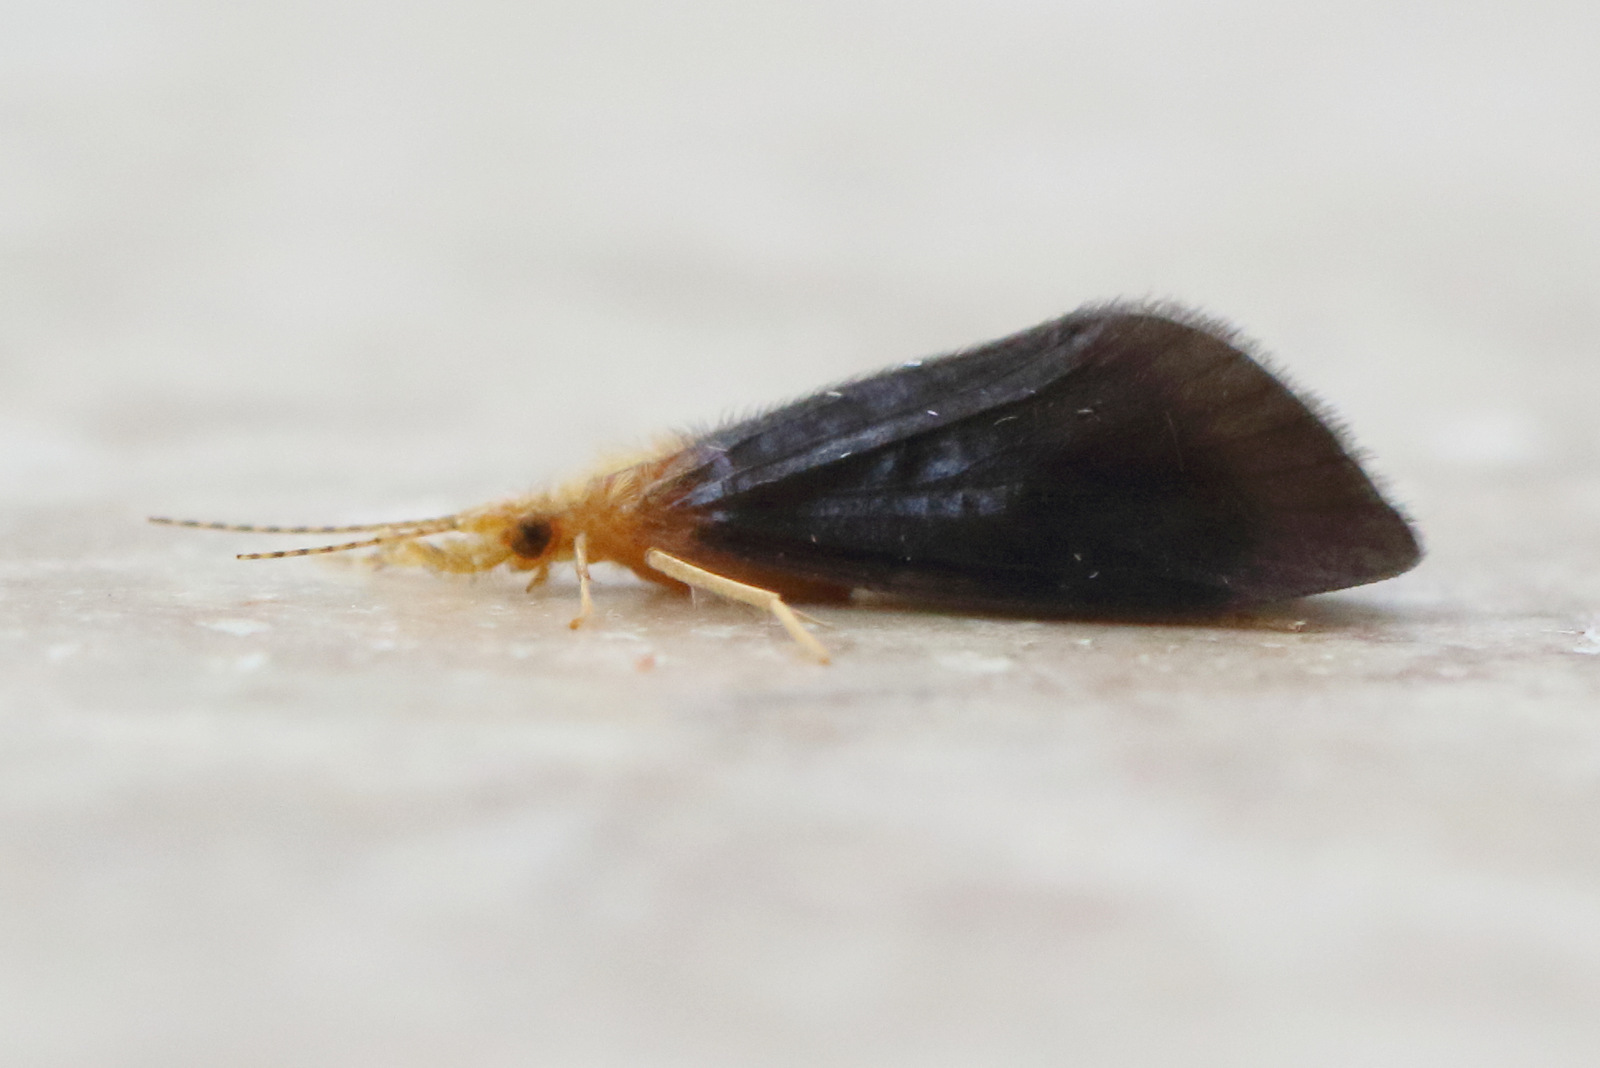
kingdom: Animalia
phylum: Arthropoda
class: Insecta
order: Trichoptera
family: Calamoceratidae
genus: Anisocentropus
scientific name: Anisocentropus latifascia
